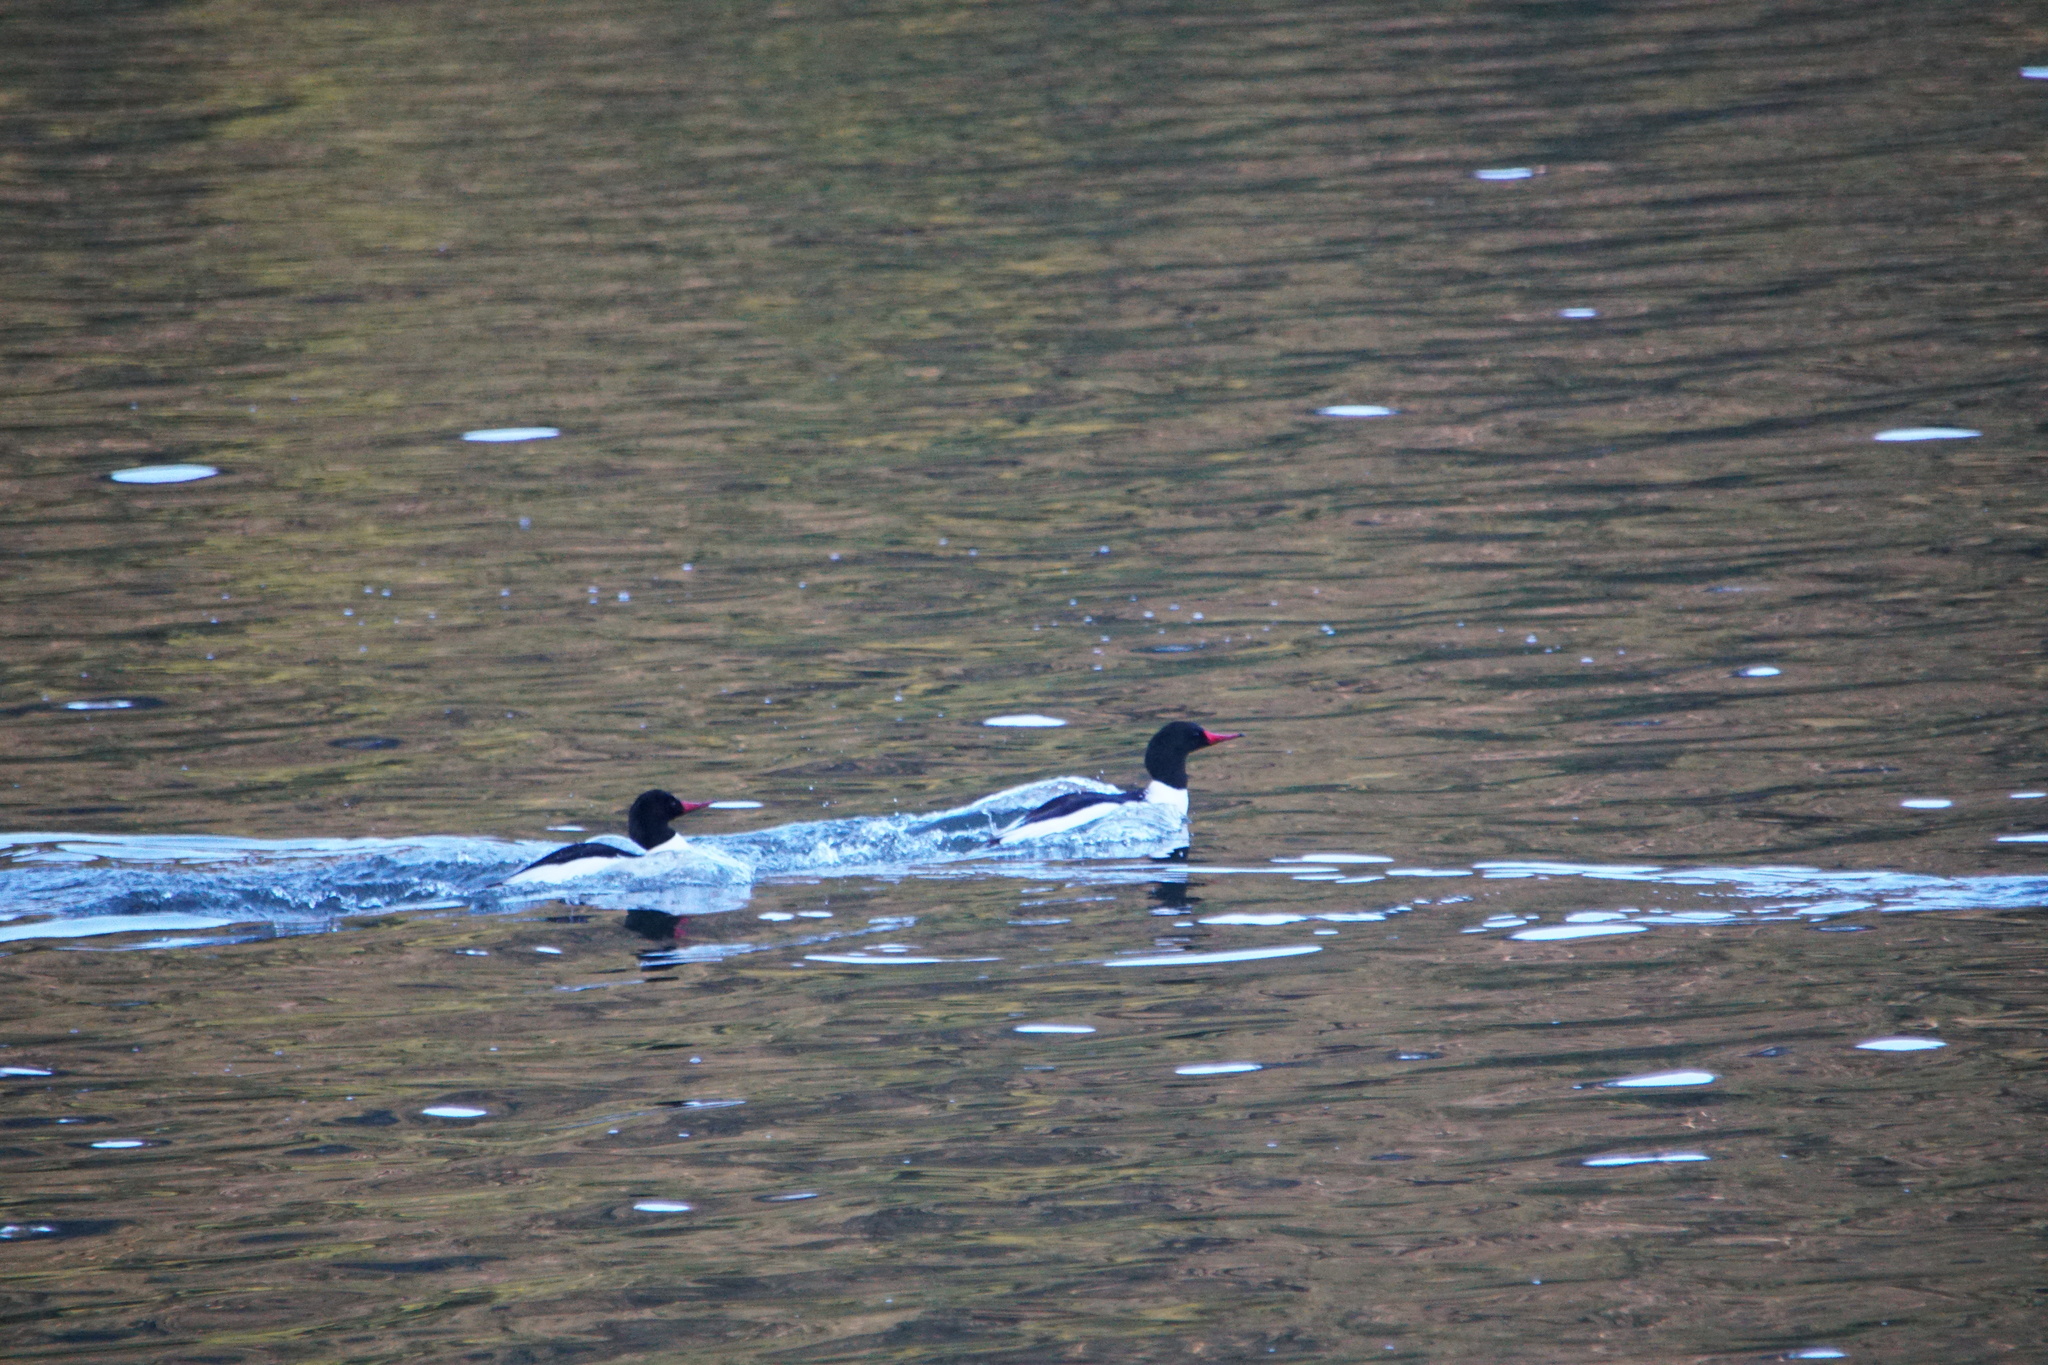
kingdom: Animalia
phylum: Chordata
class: Aves
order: Anseriformes
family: Anatidae
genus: Mergus
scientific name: Mergus merganser
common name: Common merganser
